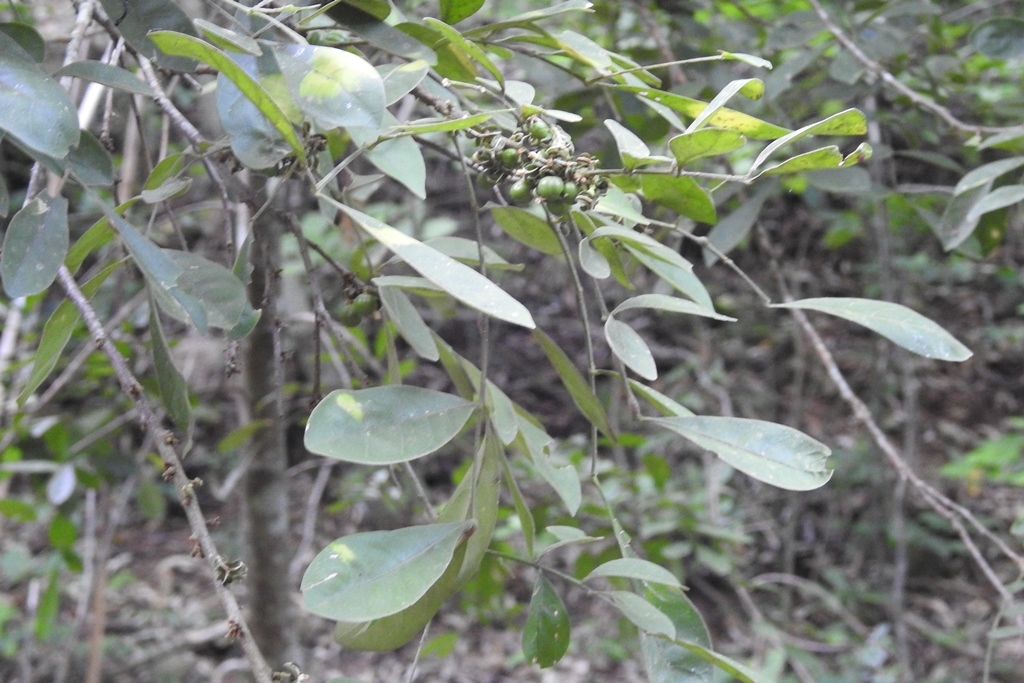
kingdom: Plantae
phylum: Tracheophyta
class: Magnoliopsida
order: Sapindales
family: Meliaceae
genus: Trichilia
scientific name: Trichilia havanensis
